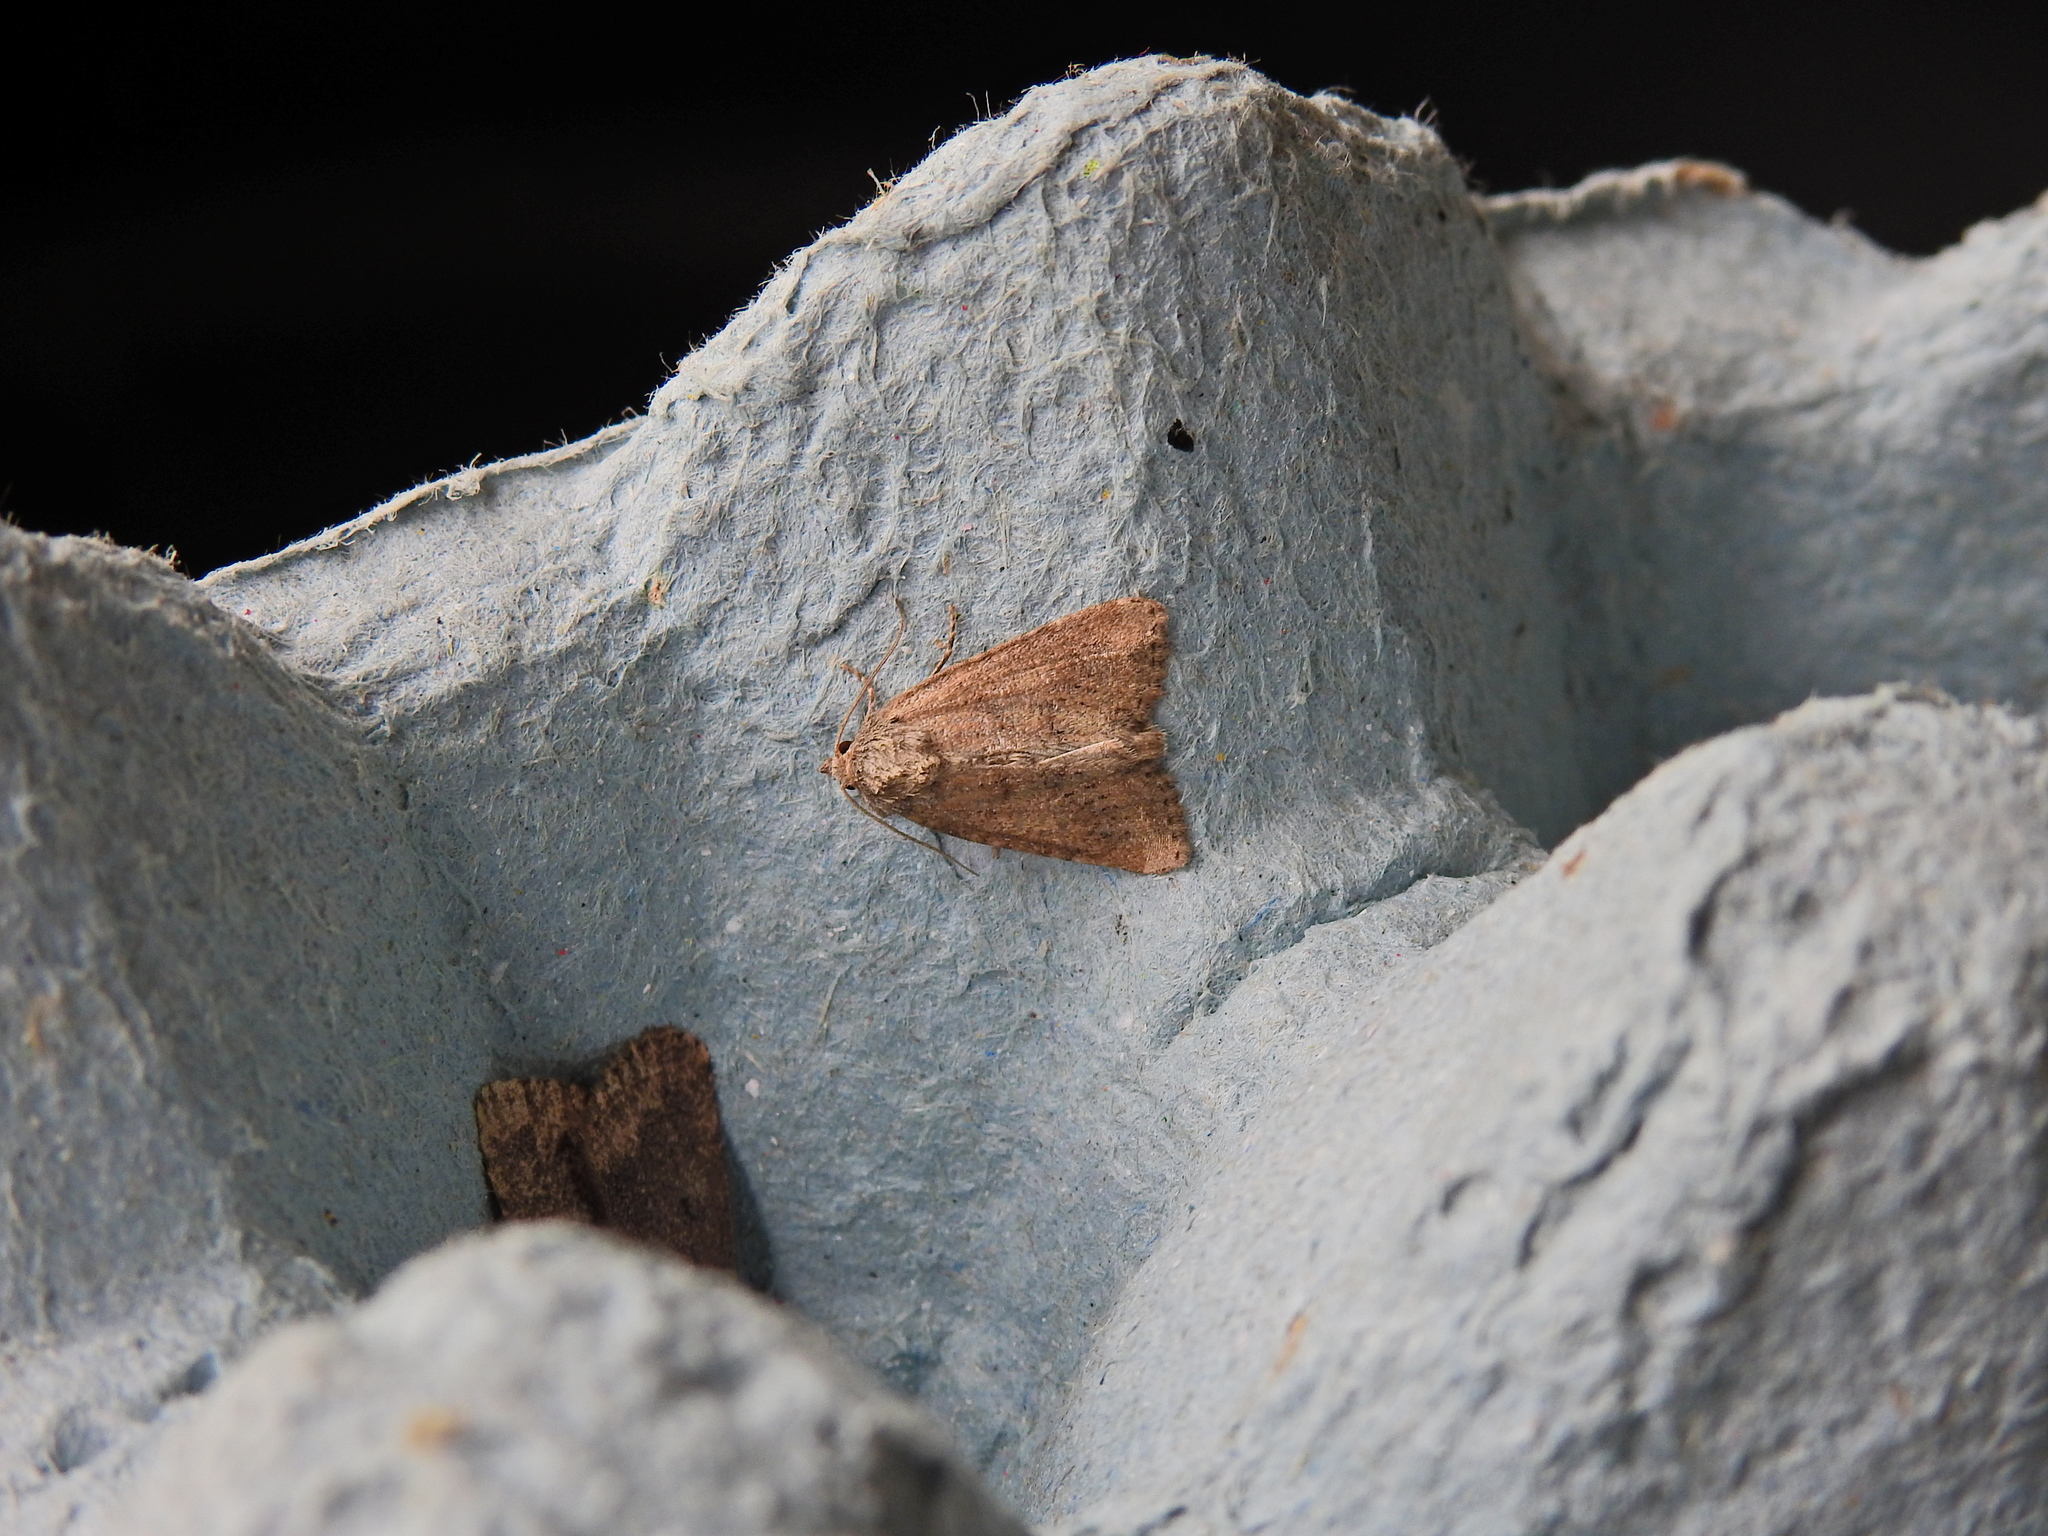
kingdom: Animalia
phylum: Arthropoda
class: Insecta
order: Lepidoptera
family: Noctuidae
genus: Mesoligia
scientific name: Mesoligia furuncula
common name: Cloaked minor
